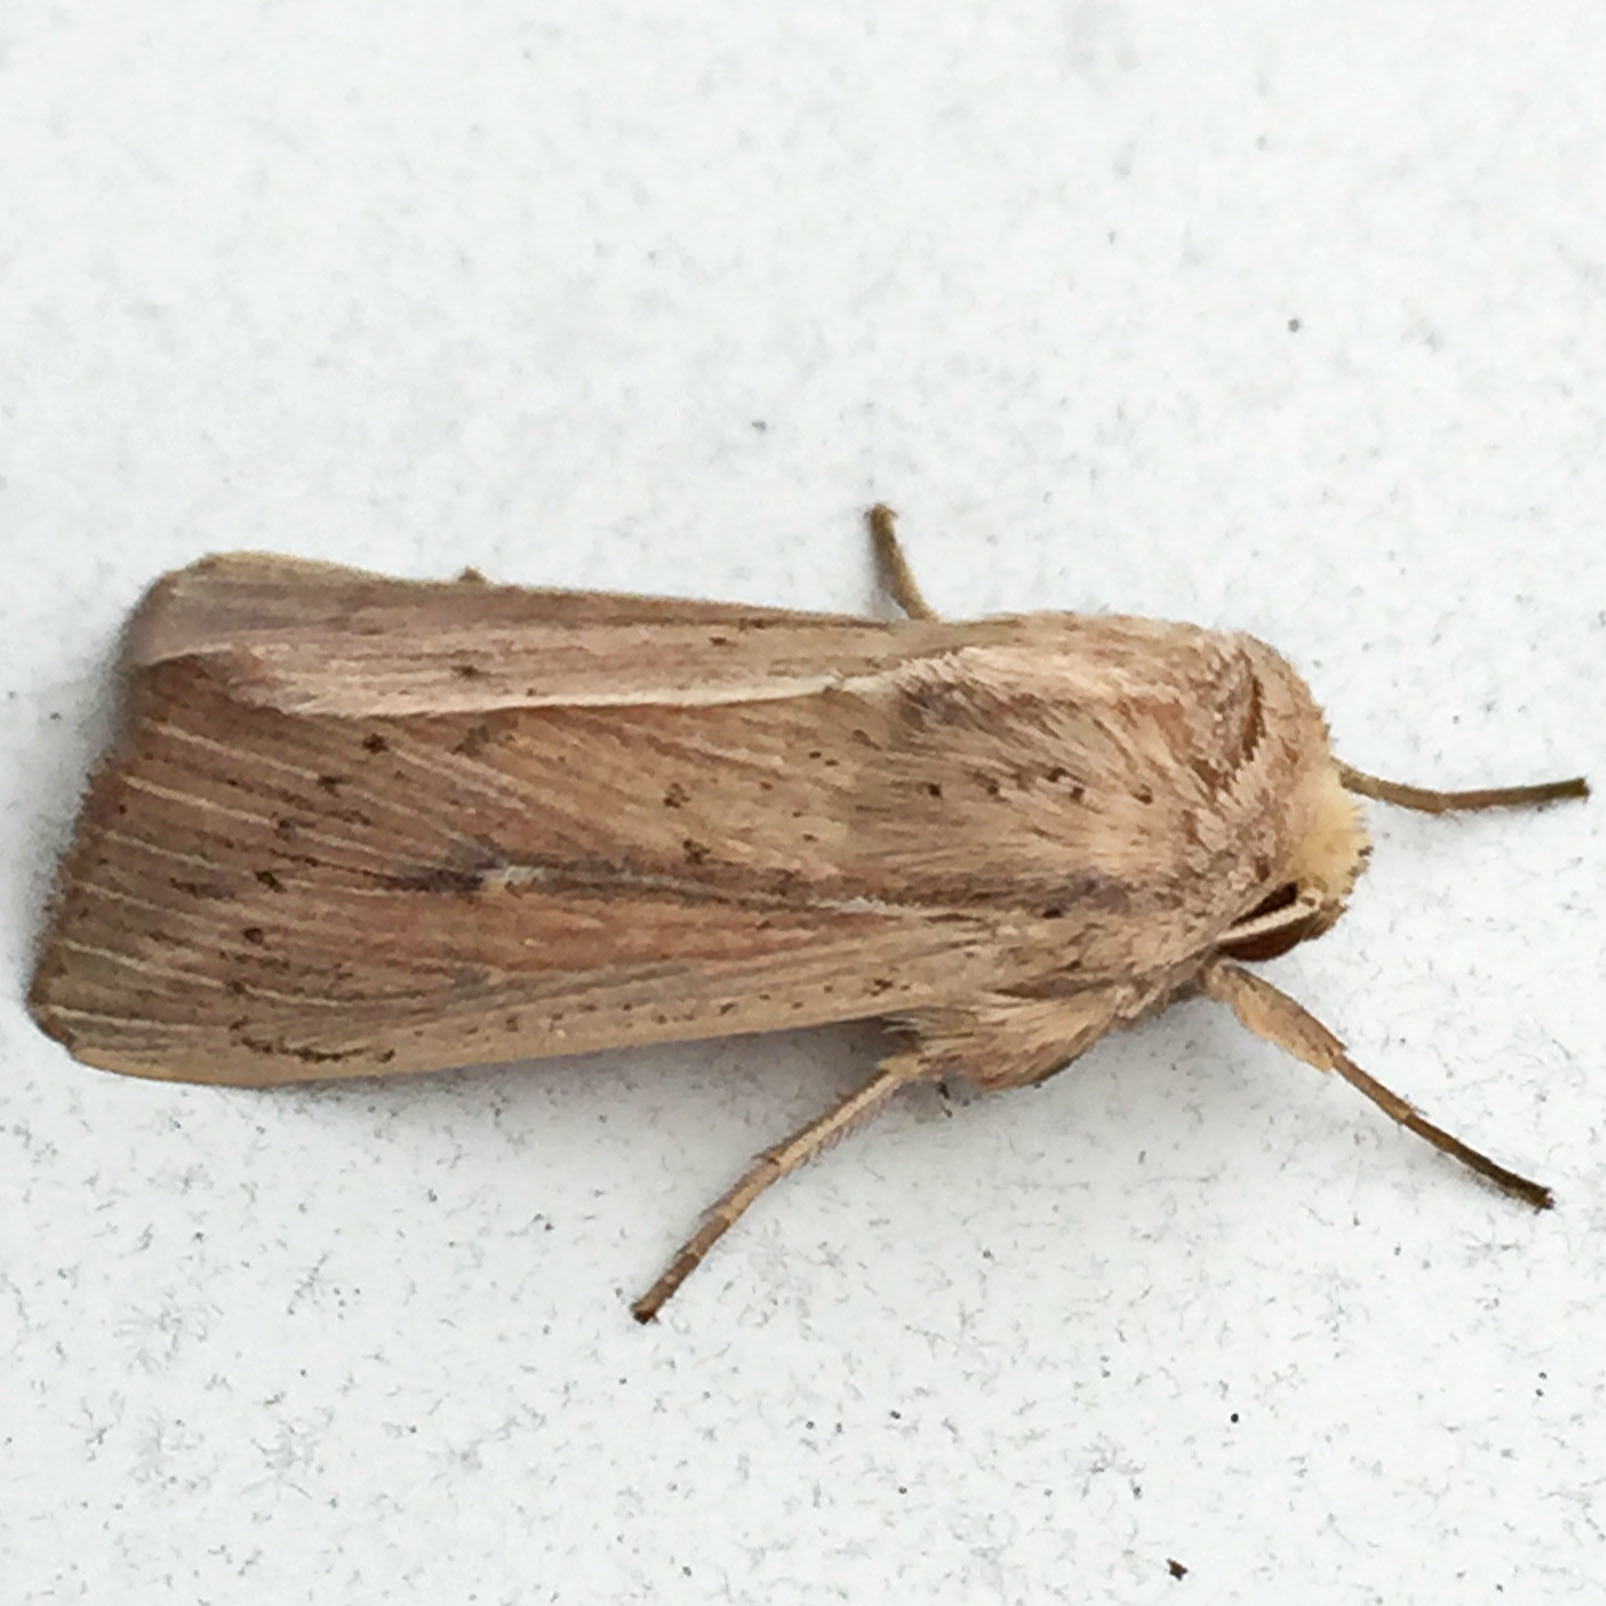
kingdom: Animalia
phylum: Arthropoda
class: Insecta
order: Lepidoptera
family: Noctuidae
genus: Leucania
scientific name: Leucania linda
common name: Linda's wainscot
